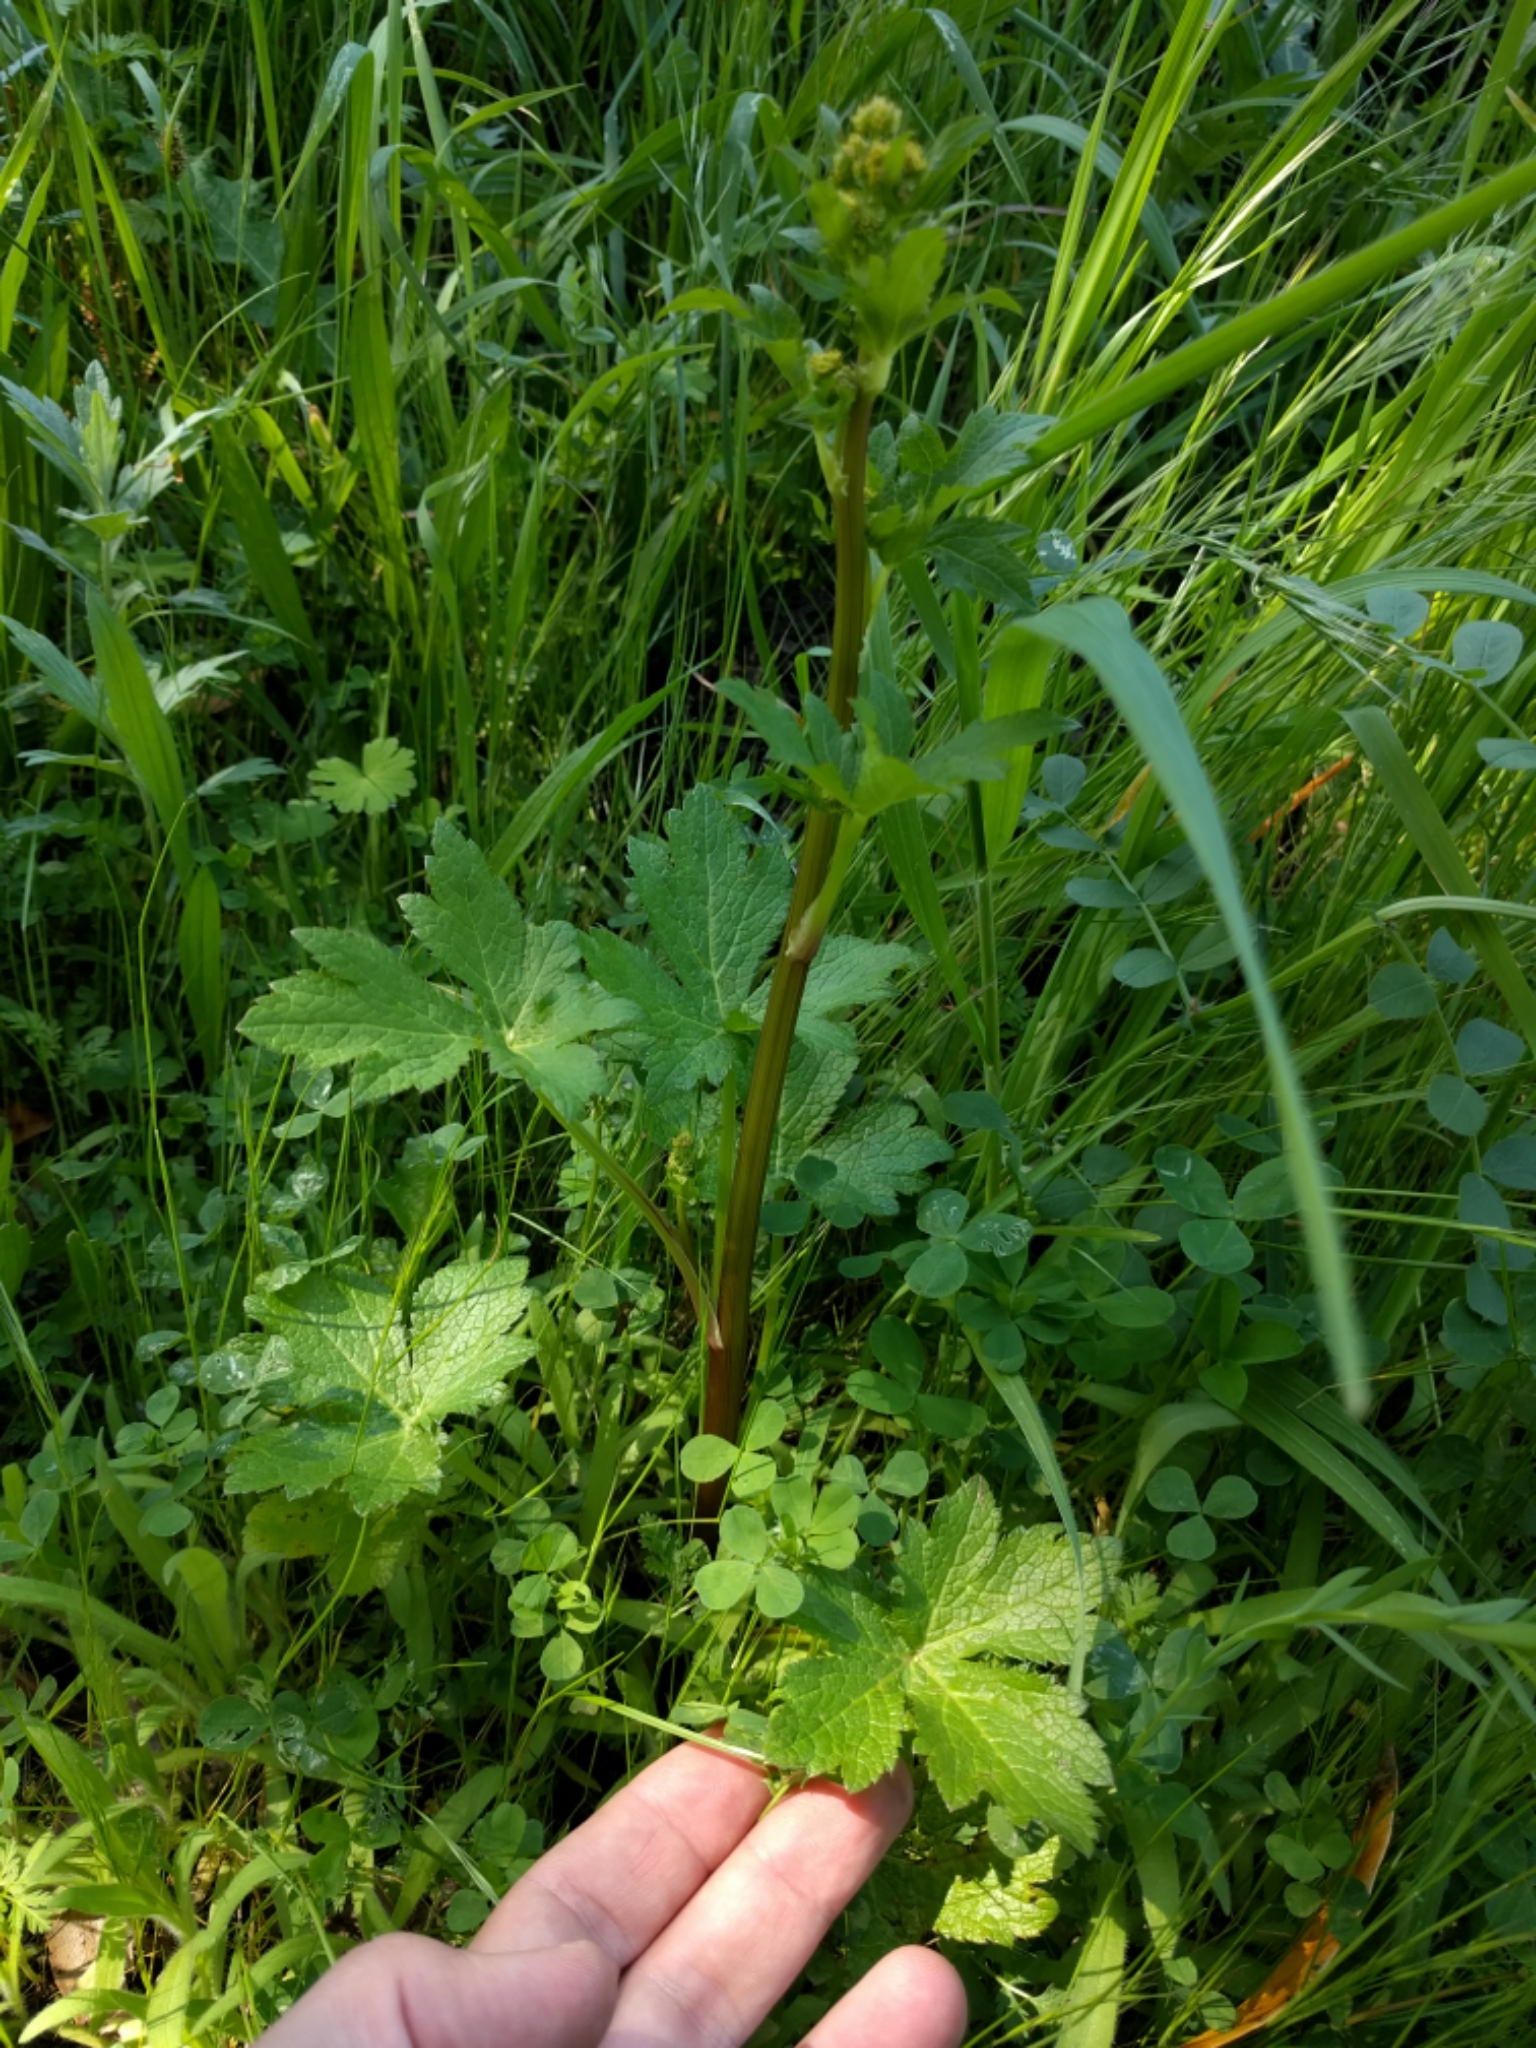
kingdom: Plantae
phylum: Tracheophyta
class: Magnoliopsida
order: Apiales
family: Apiaceae
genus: Sanicula
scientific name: Sanicula crassicaulis
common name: Western snakeroot
